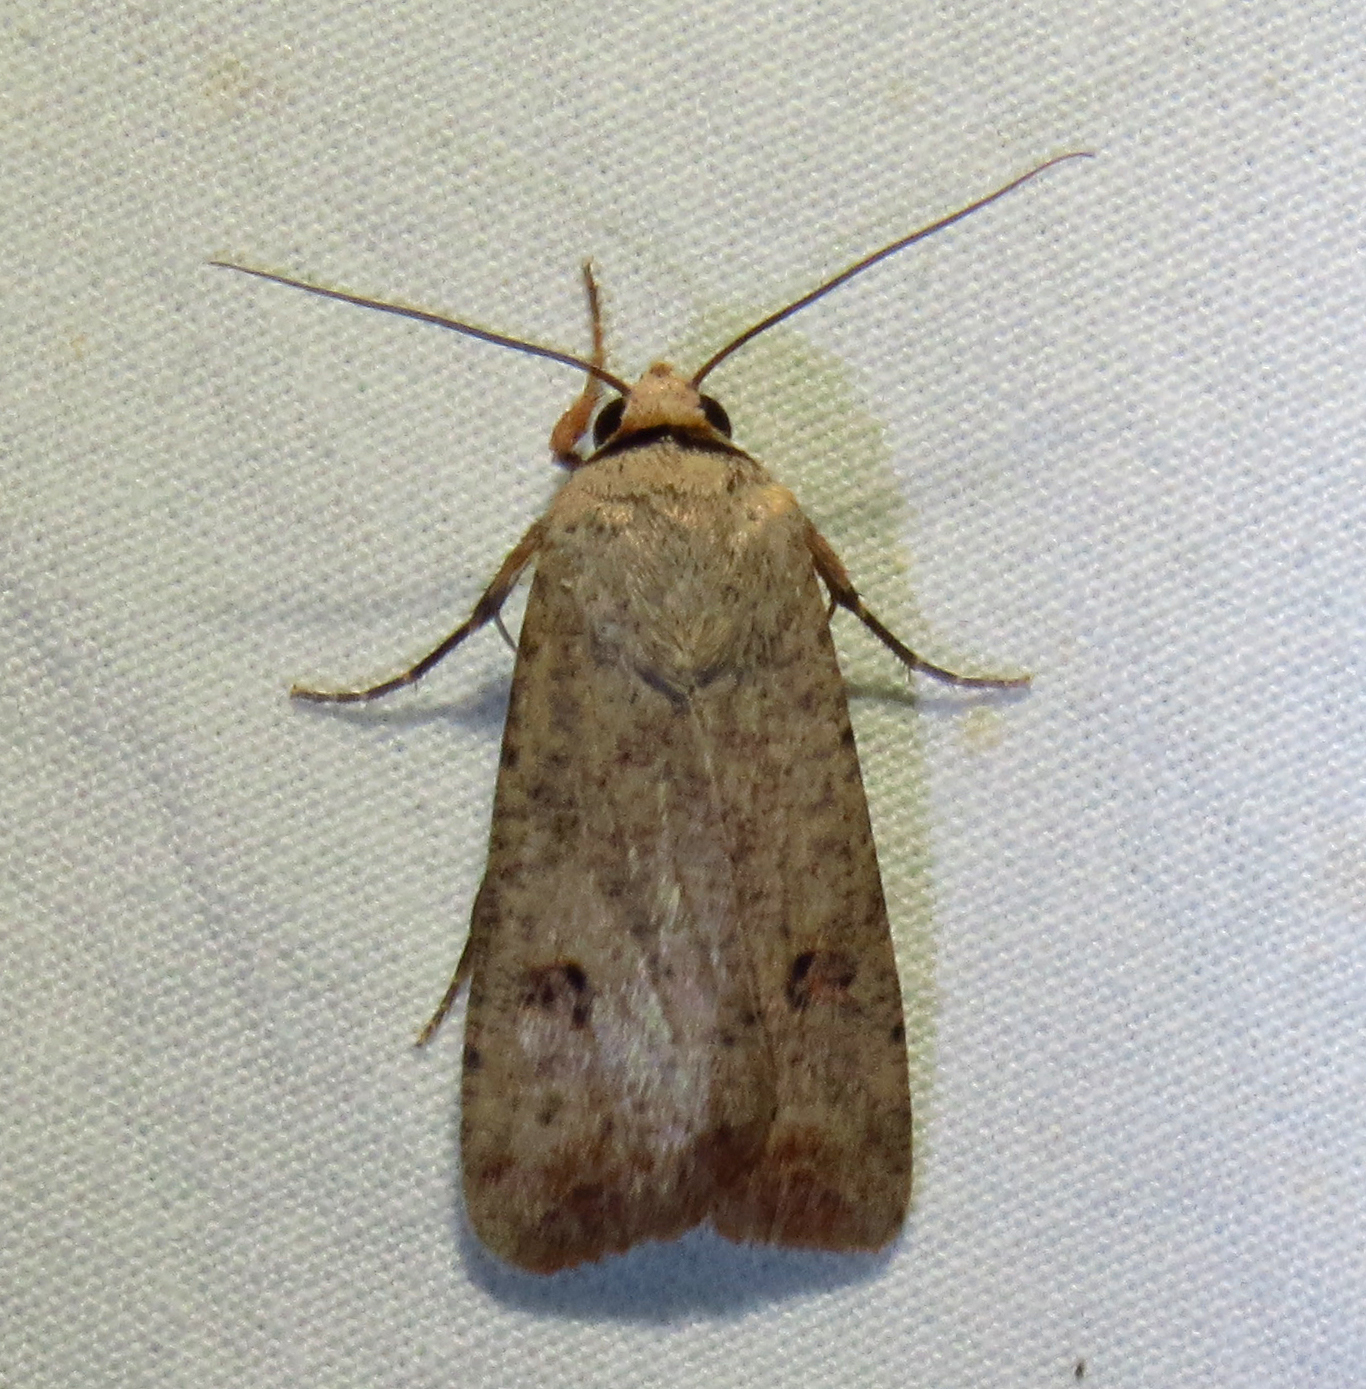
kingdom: Animalia
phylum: Arthropoda
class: Insecta
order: Lepidoptera
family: Noctuidae
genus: Anicla
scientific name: Anicla infecta
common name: Green cutworm
